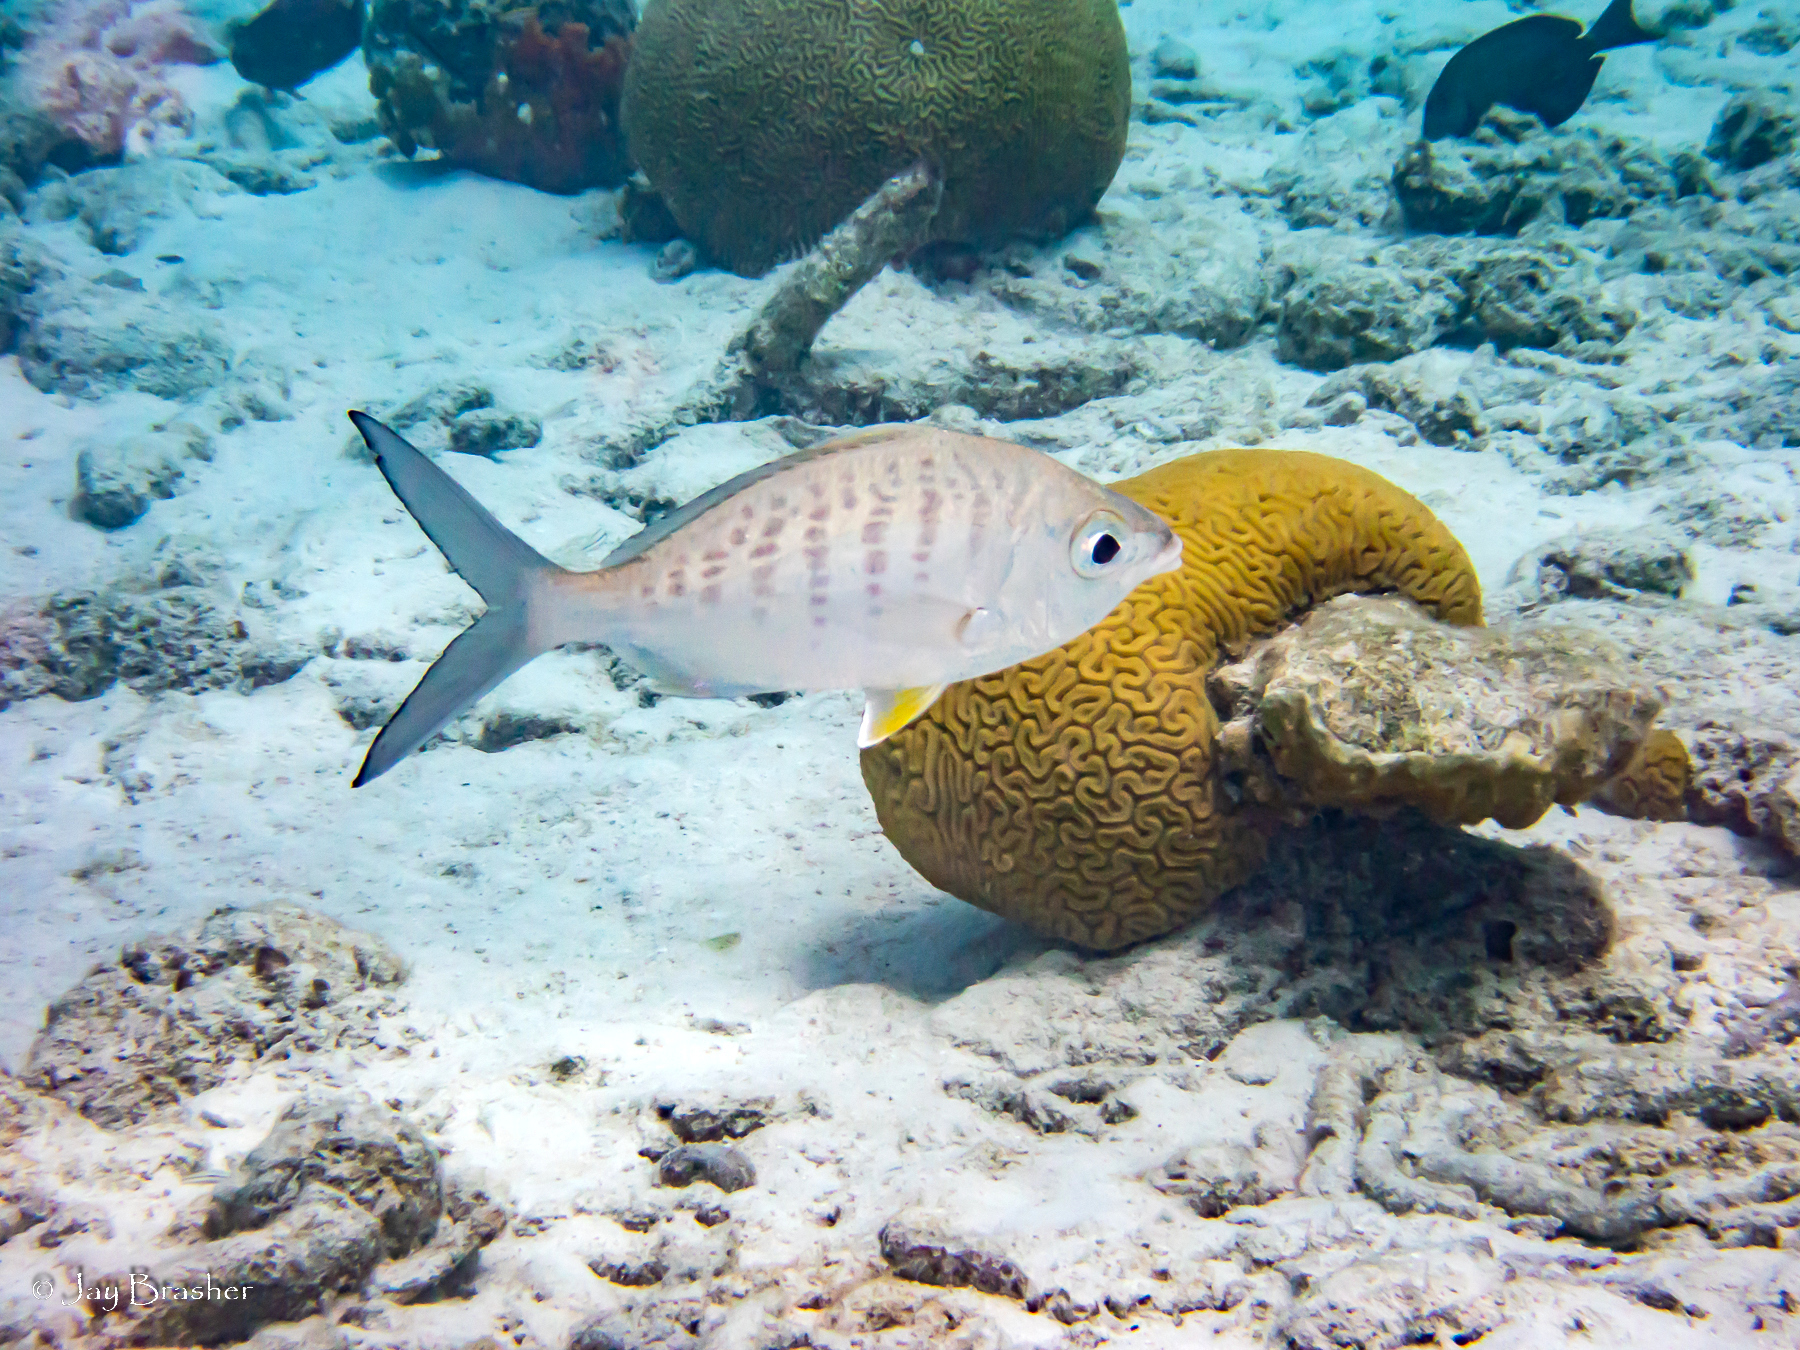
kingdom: Animalia
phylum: Chordata
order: Perciformes
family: Gerreidae
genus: Gerres
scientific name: Gerres cinereus
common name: Hedow
